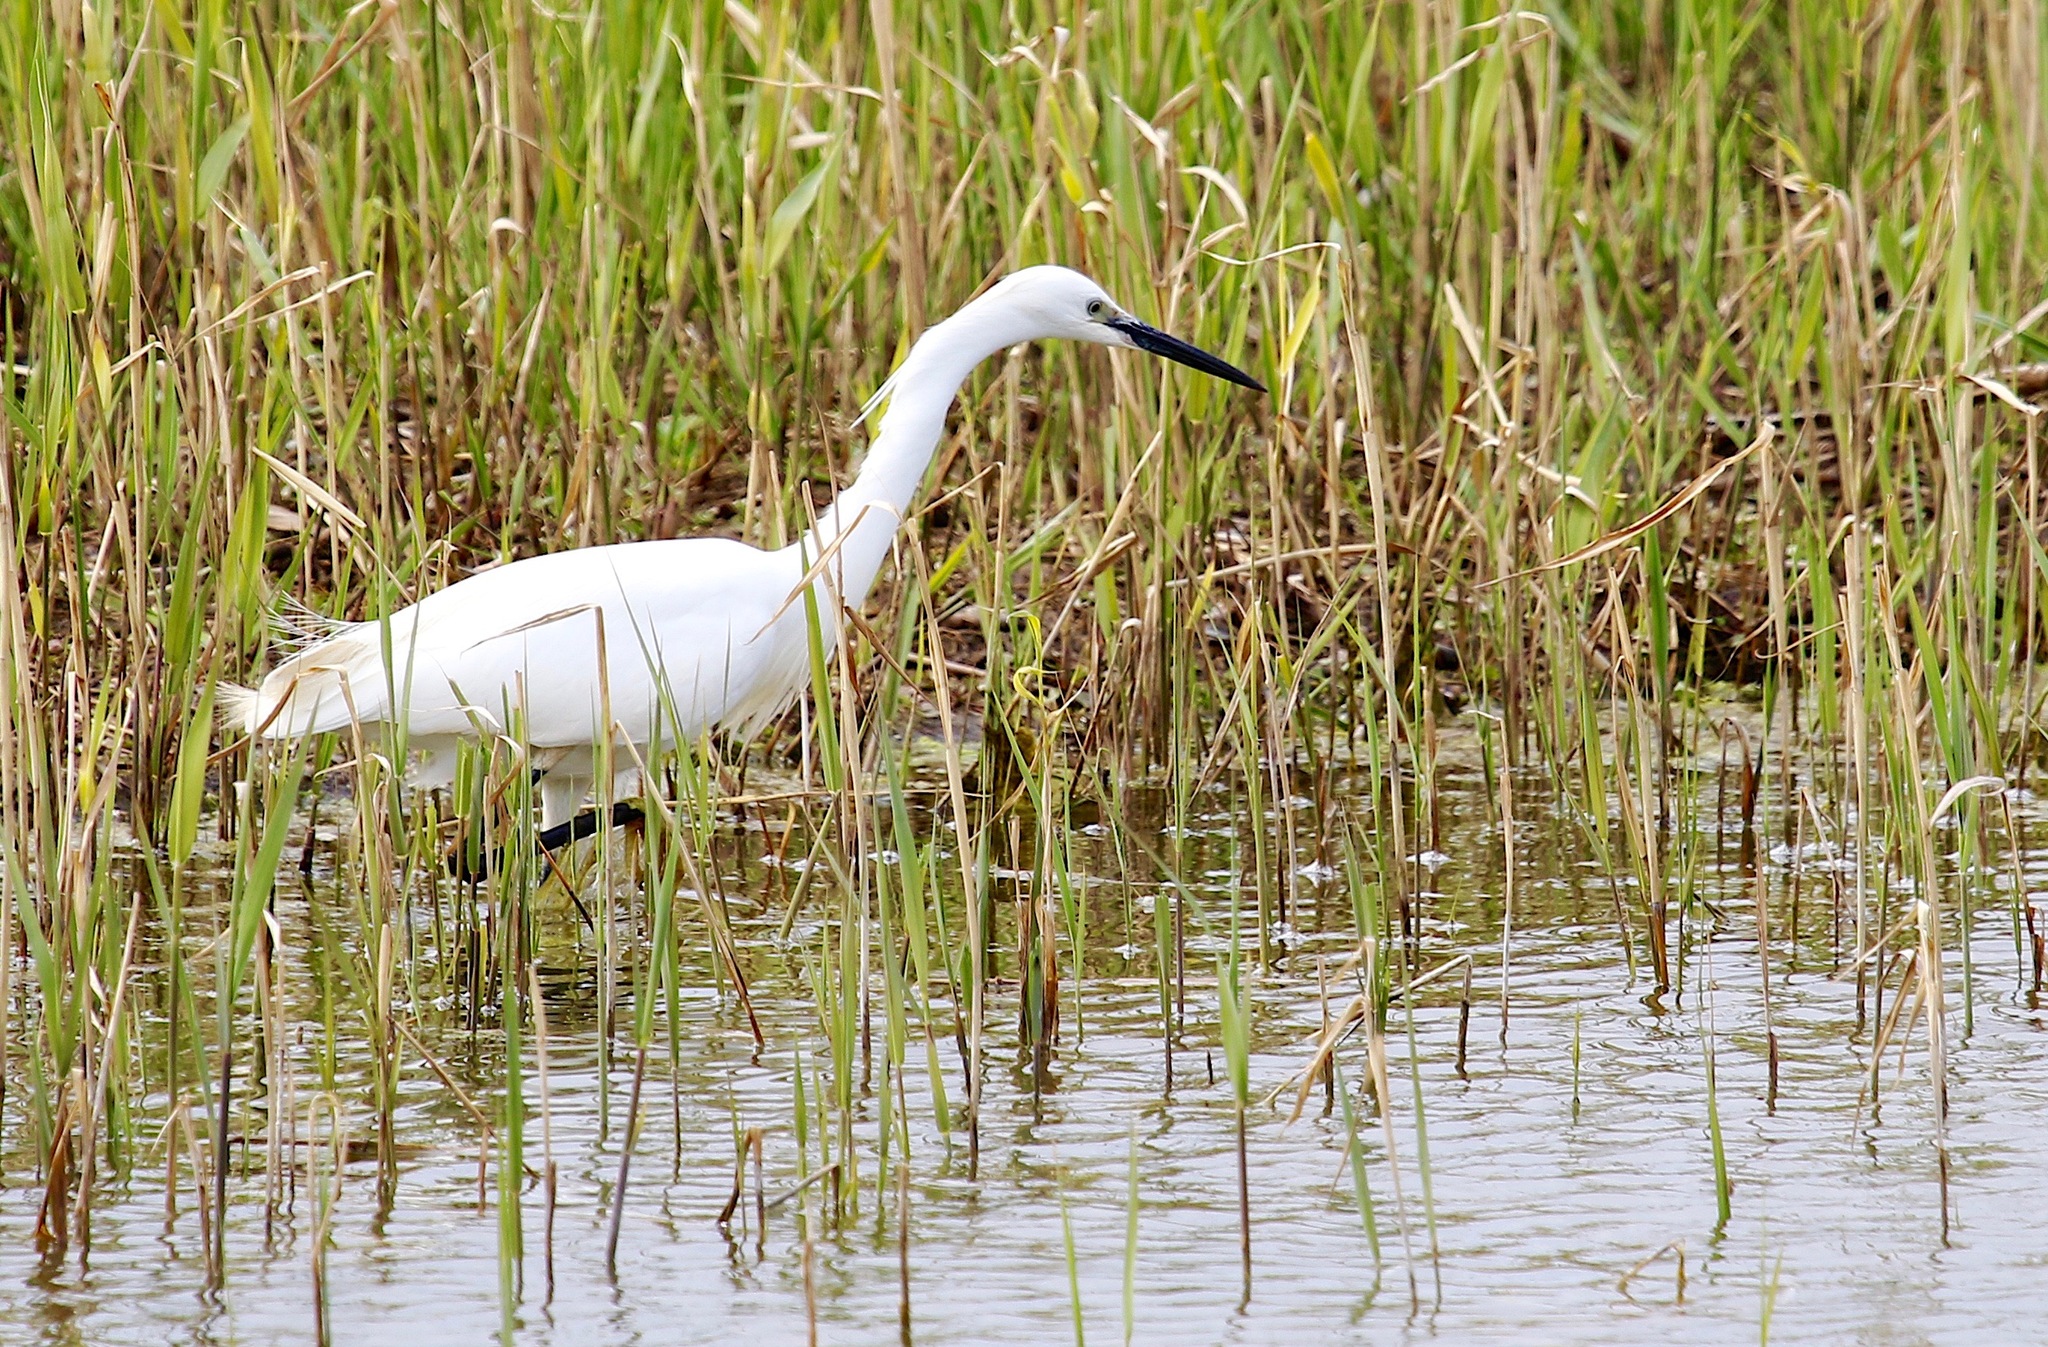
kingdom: Animalia
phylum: Chordata
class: Aves
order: Pelecaniformes
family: Ardeidae
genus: Egretta
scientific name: Egretta garzetta
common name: Little egret
